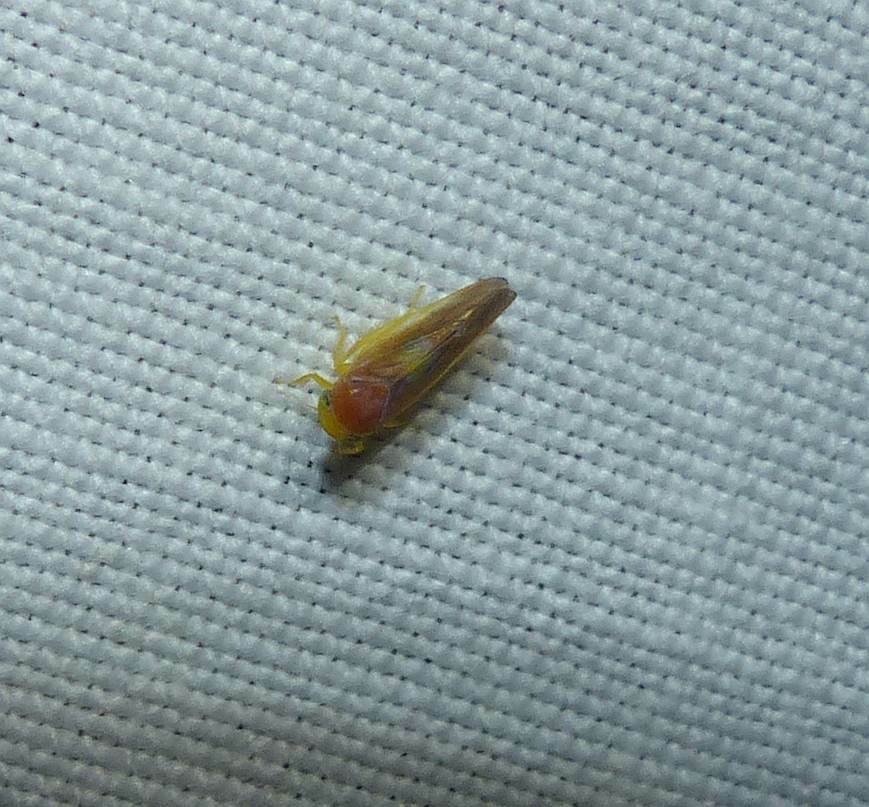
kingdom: Animalia
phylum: Arthropoda
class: Insecta
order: Hemiptera
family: Cicadellidae
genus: Colladonus
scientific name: Colladonus setaceus
